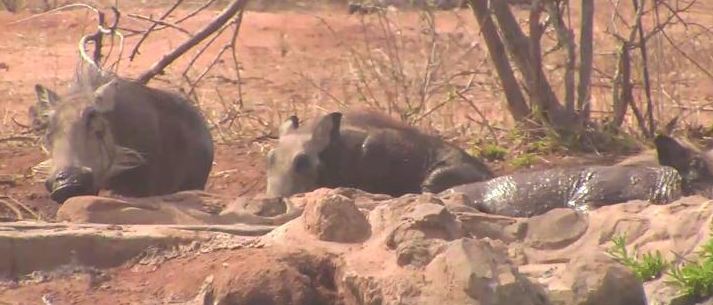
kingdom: Animalia
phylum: Chordata
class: Mammalia
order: Artiodactyla
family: Suidae
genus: Phacochoerus
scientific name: Phacochoerus africanus
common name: Common warthog
